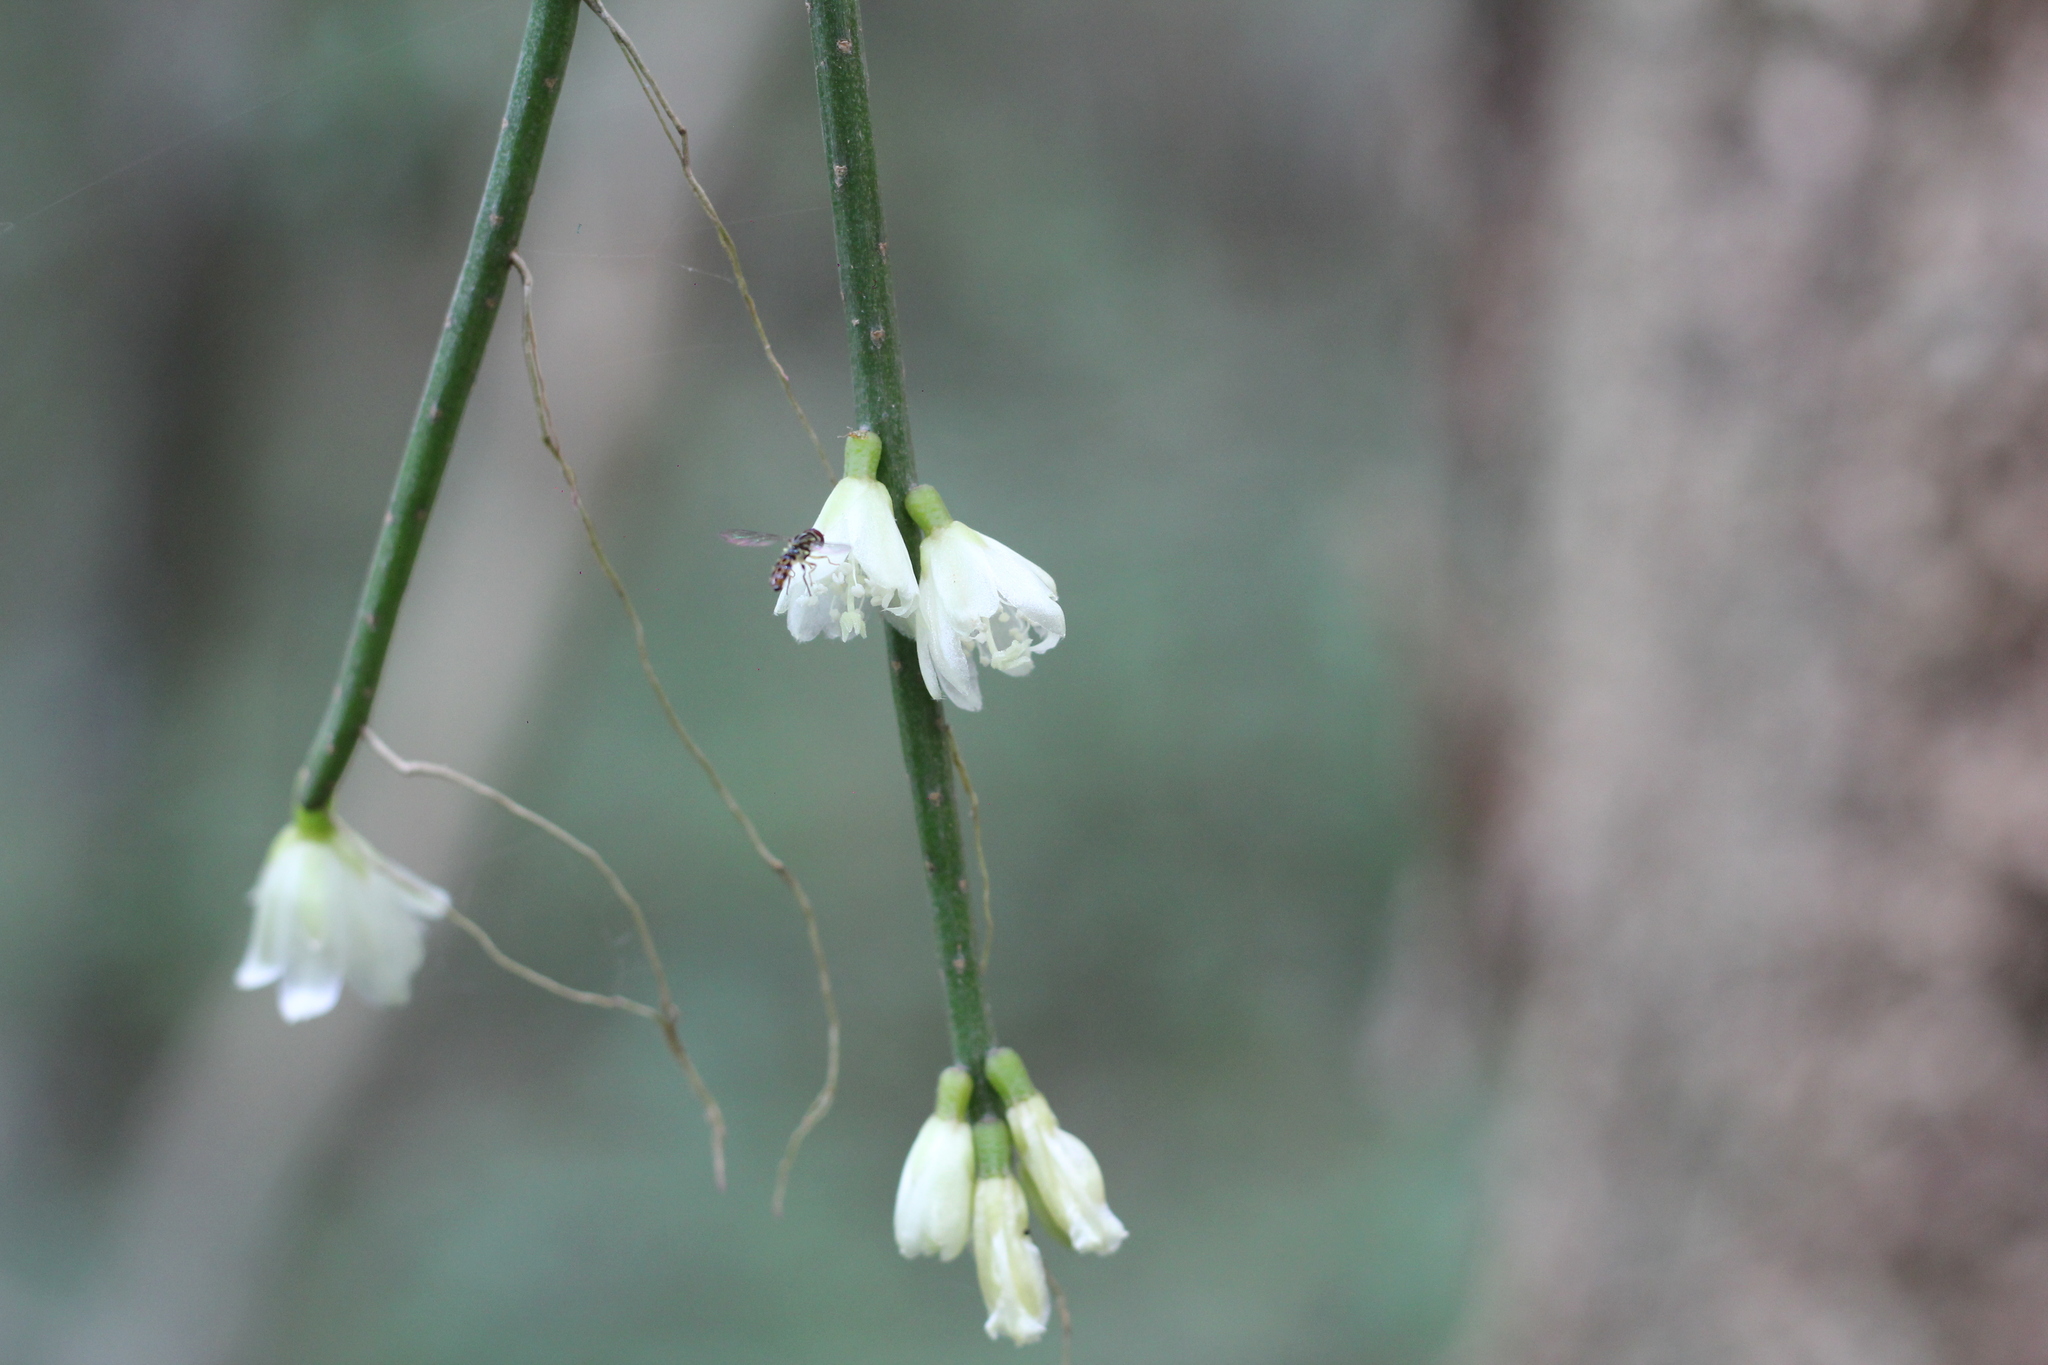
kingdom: Plantae
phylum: Tracheophyta
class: Magnoliopsida
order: Caryophyllales
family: Cactaceae
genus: Lepismium
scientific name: Lepismium lumbricoides
